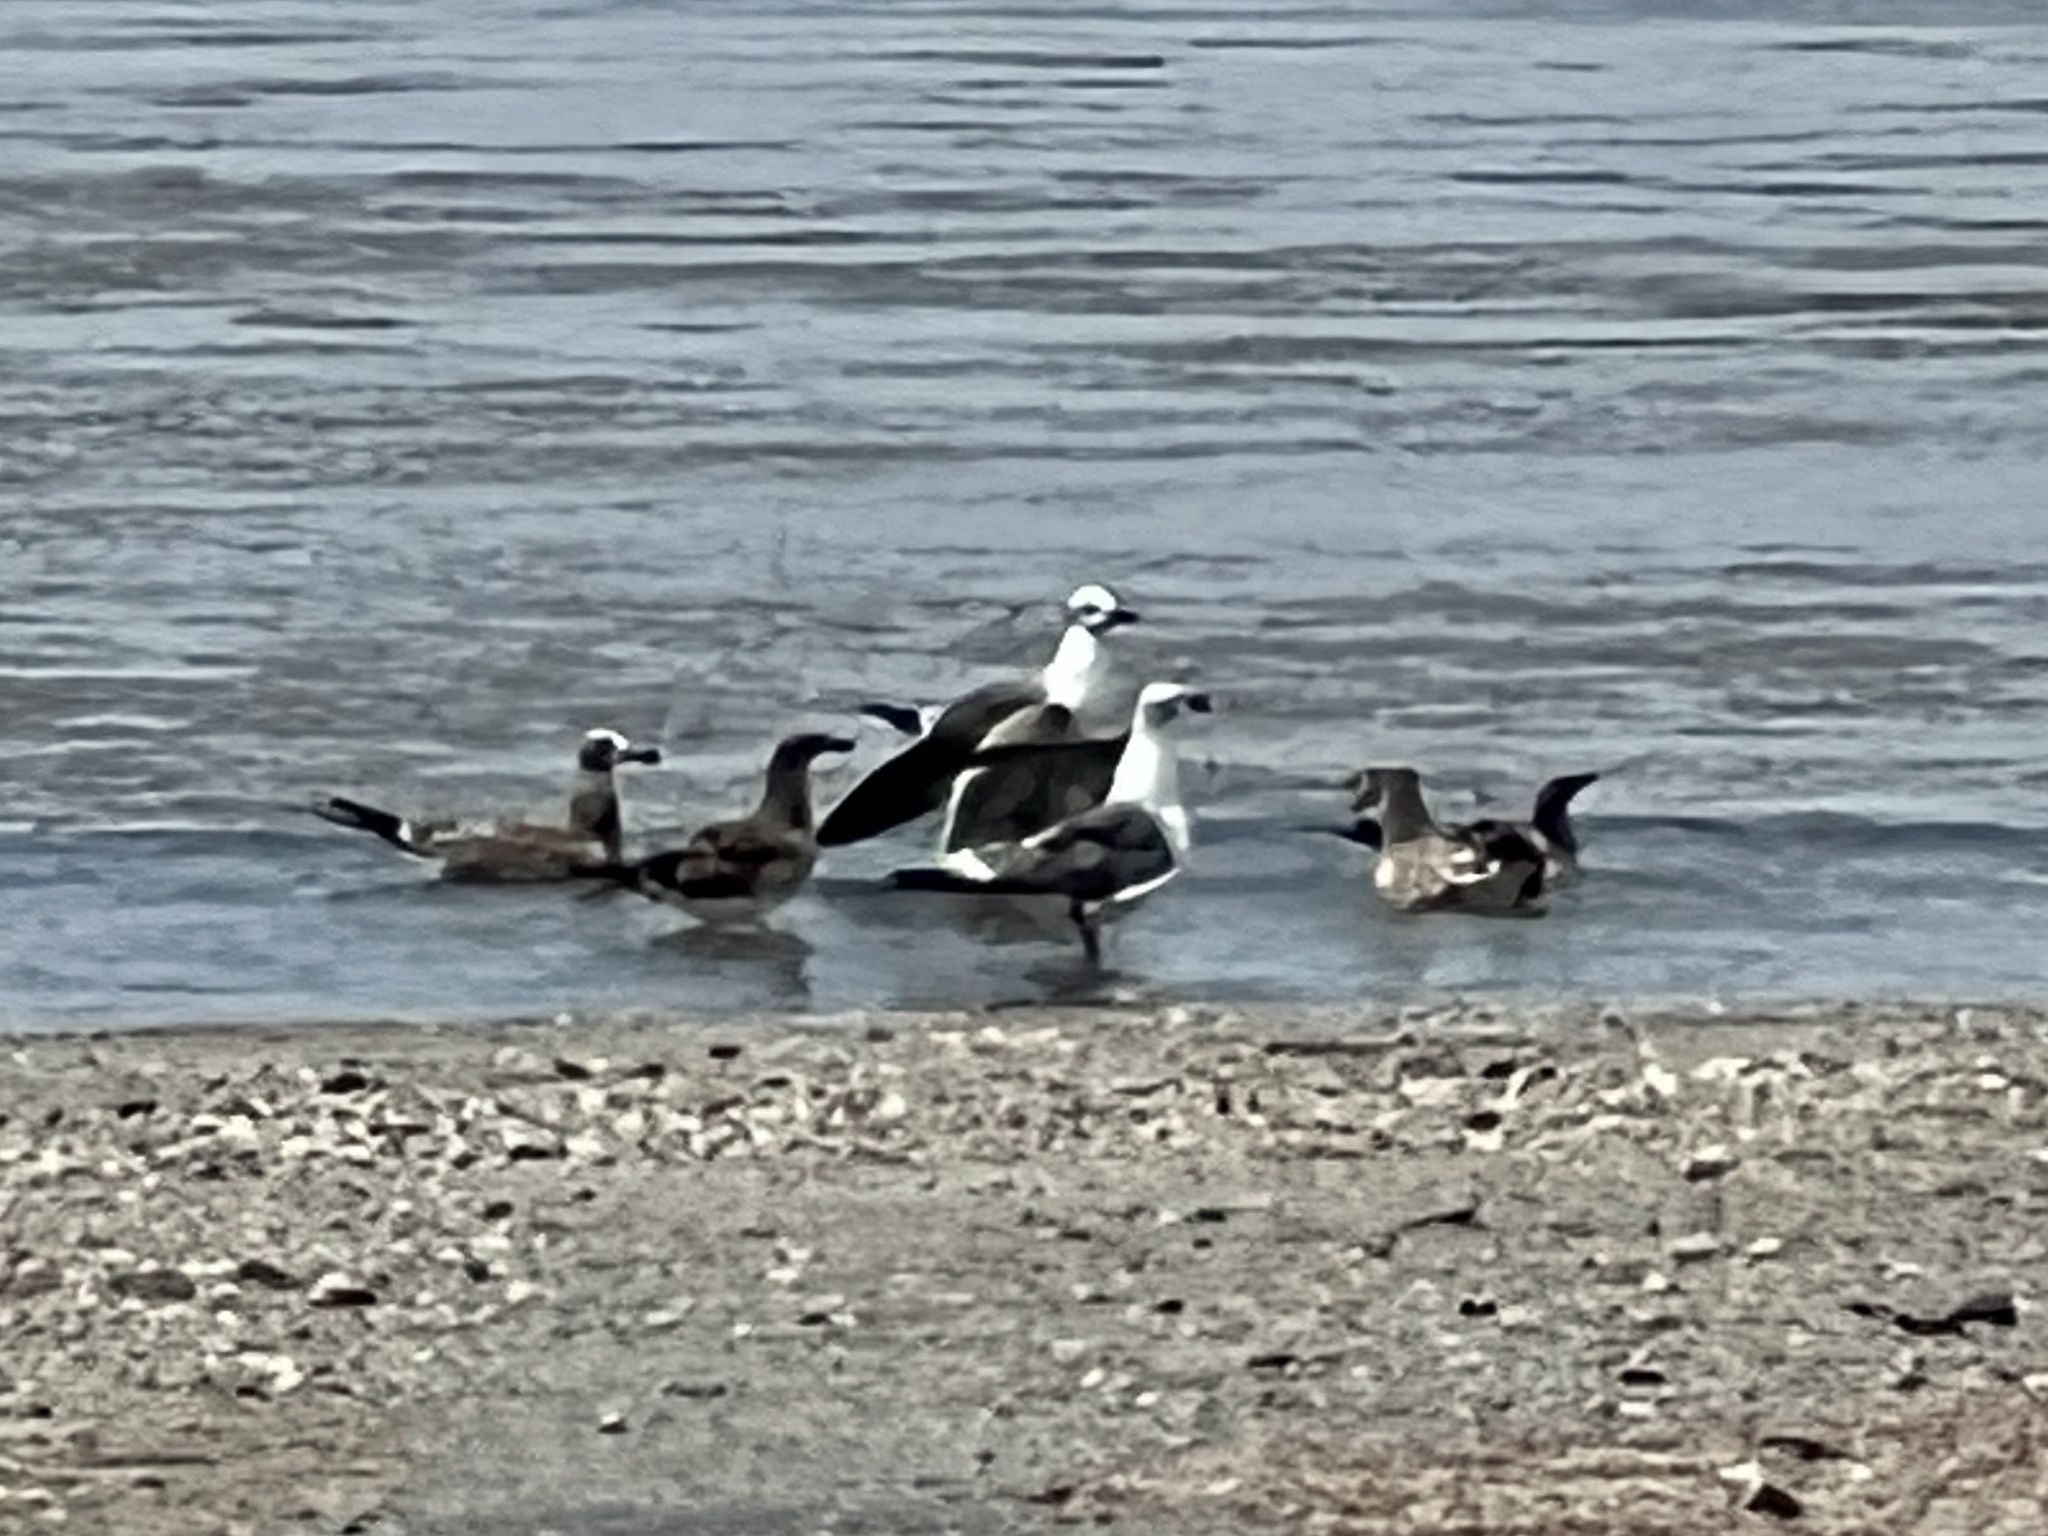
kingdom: Animalia
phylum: Chordata
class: Aves
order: Charadriiformes
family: Laridae
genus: Leucophaeus
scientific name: Leucophaeus atricilla
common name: Laughing gull
